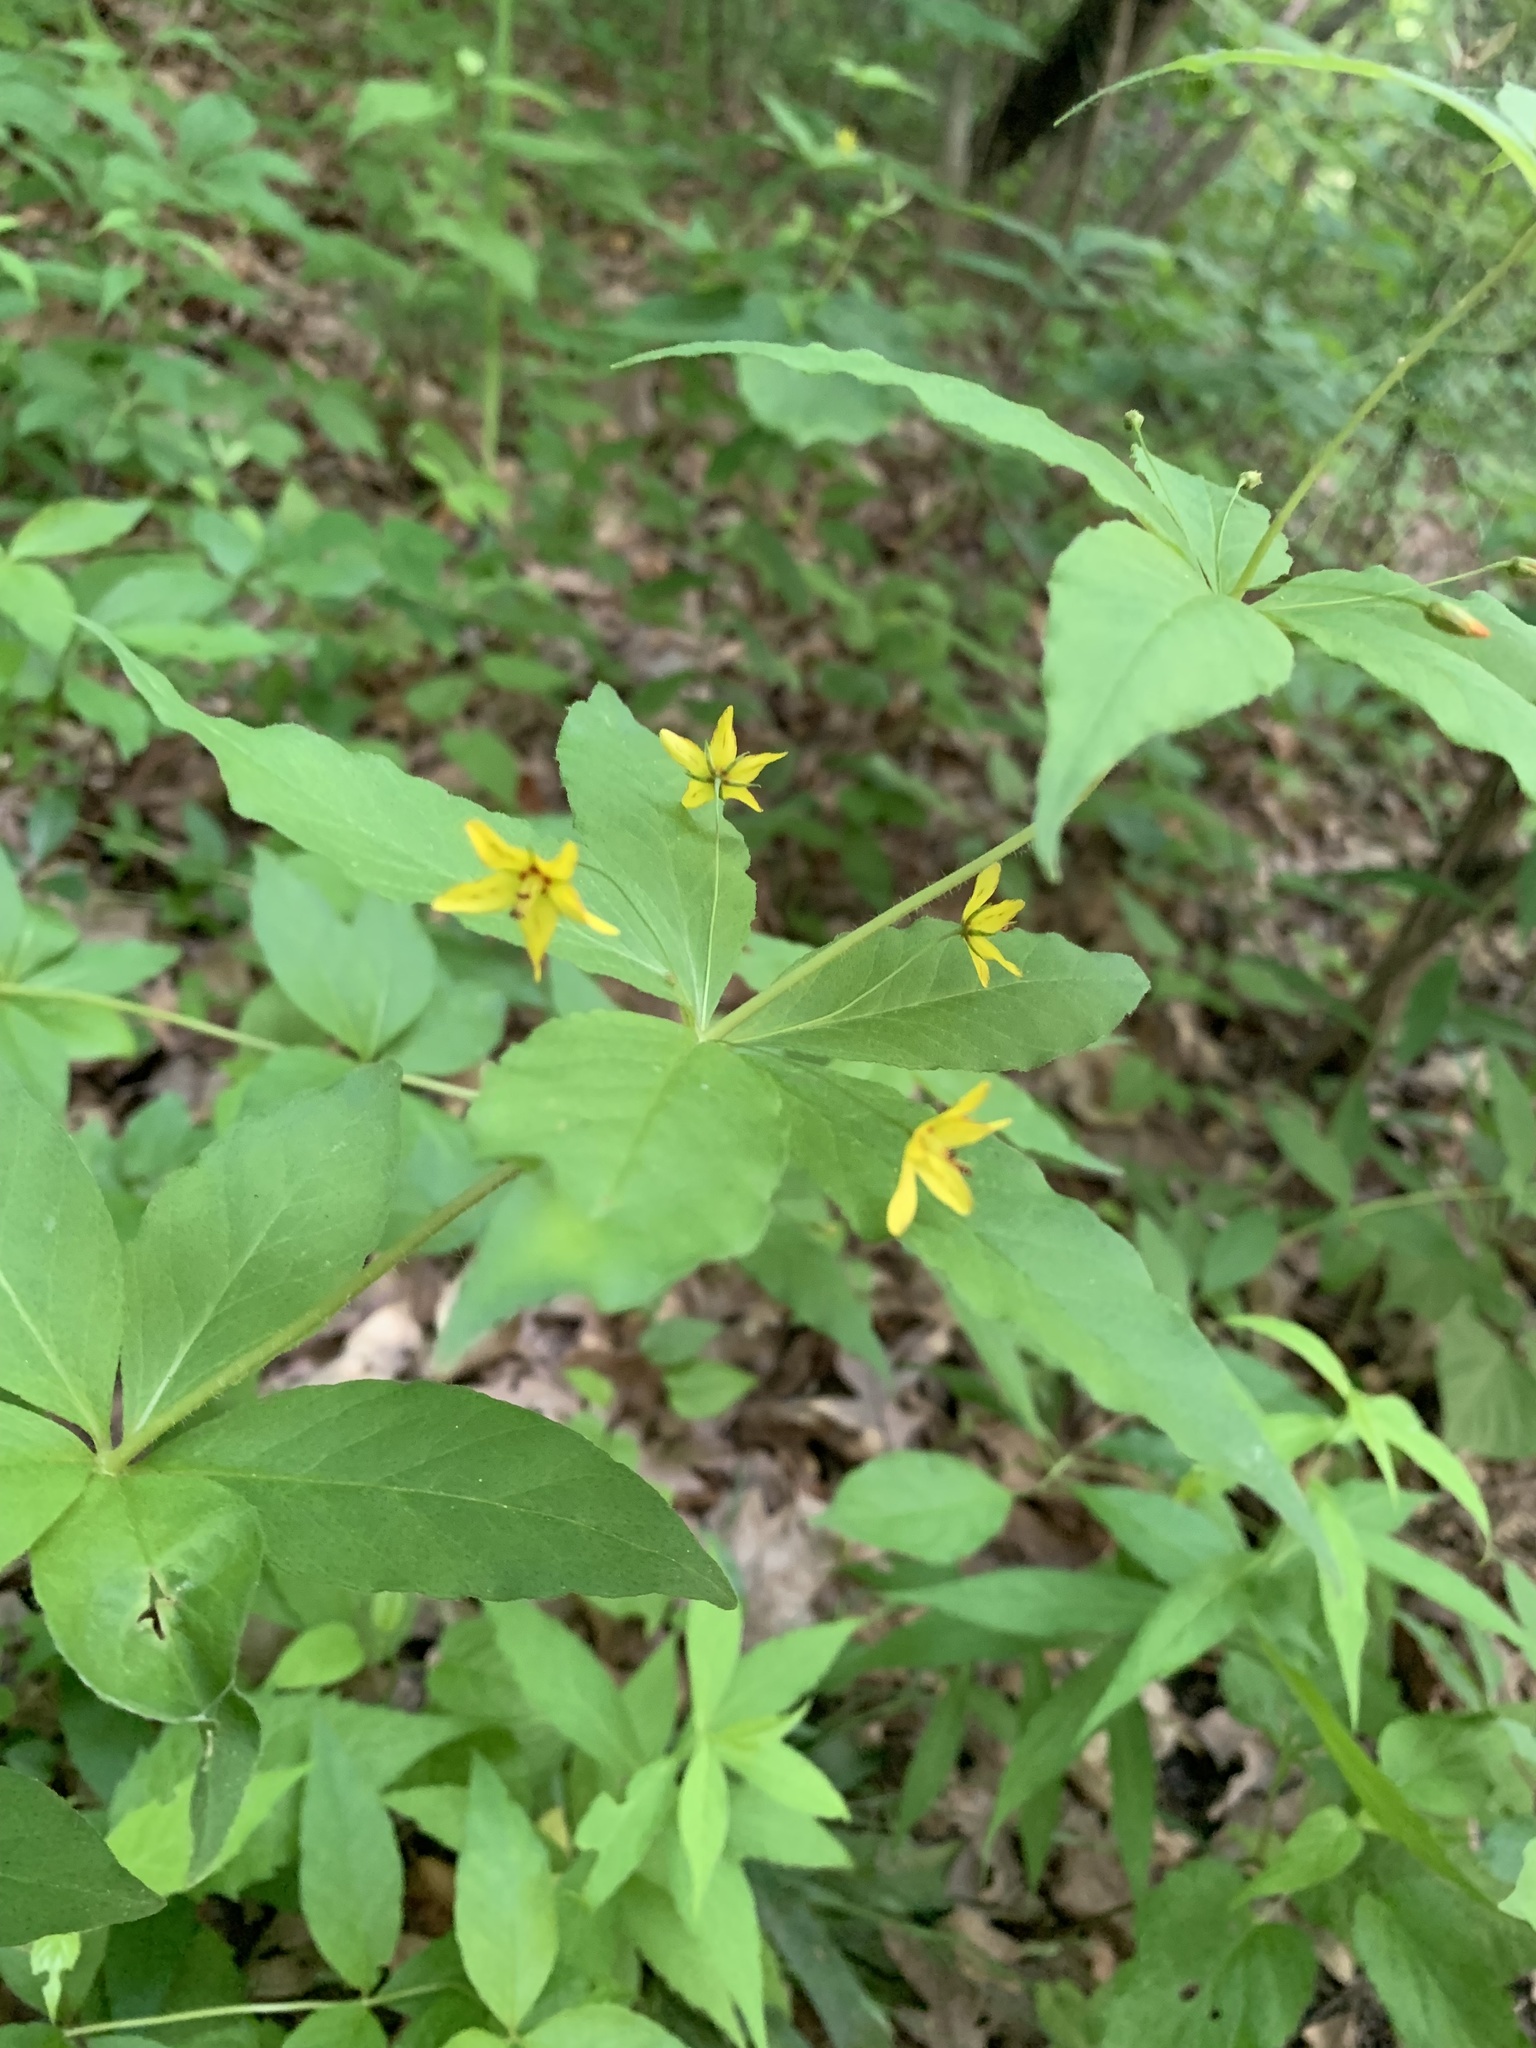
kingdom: Plantae
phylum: Tracheophyta
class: Magnoliopsida
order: Ericales
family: Primulaceae
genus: Lysimachia
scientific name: Lysimachia quadrifolia
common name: Whorled loosestrife
